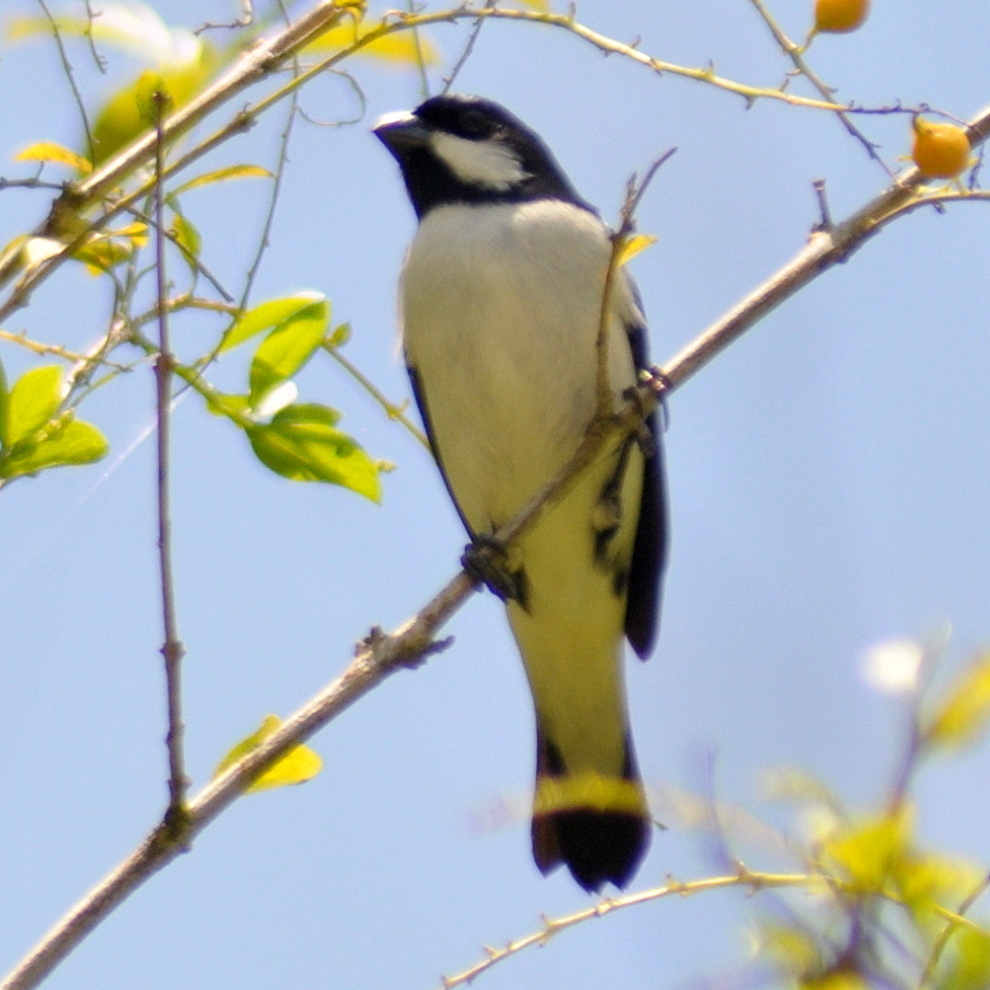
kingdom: Animalia
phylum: Chordata
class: Aves
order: Passeriformes
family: Thraupidae
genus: Sporophila
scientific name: Sporophila lineola
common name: Lined seedeater
